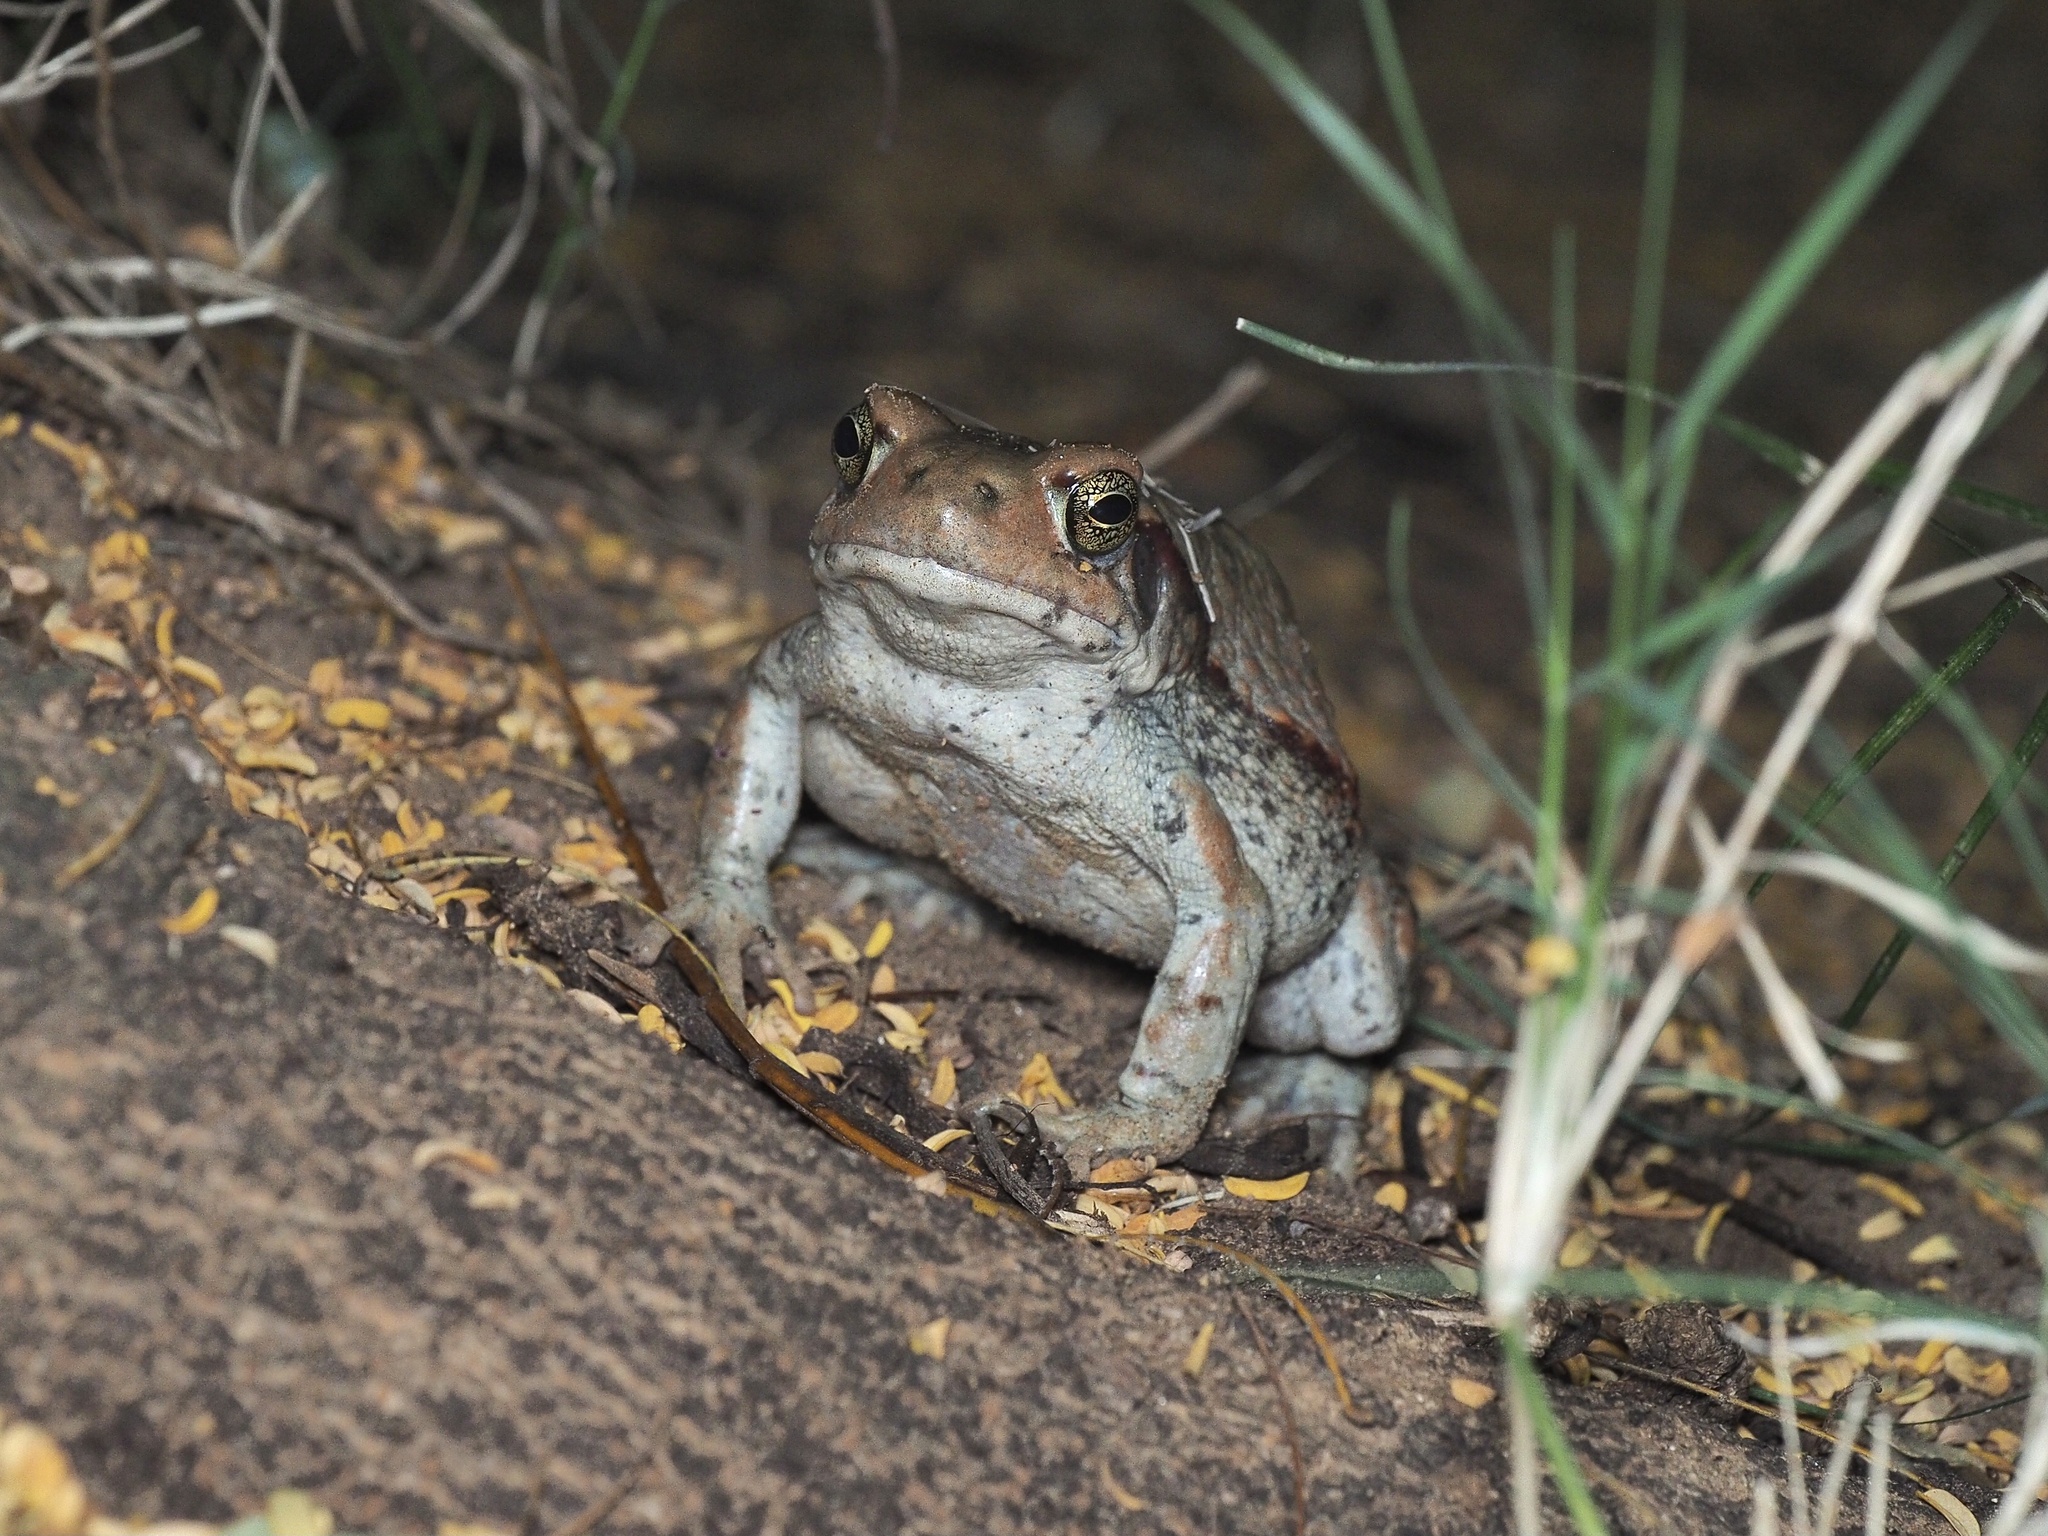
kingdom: Animalia
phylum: Chordata
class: Amphibia
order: Anura
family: Bufonidae
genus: Schismaderma
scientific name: Schismaderma carens
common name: African split-skin toad
